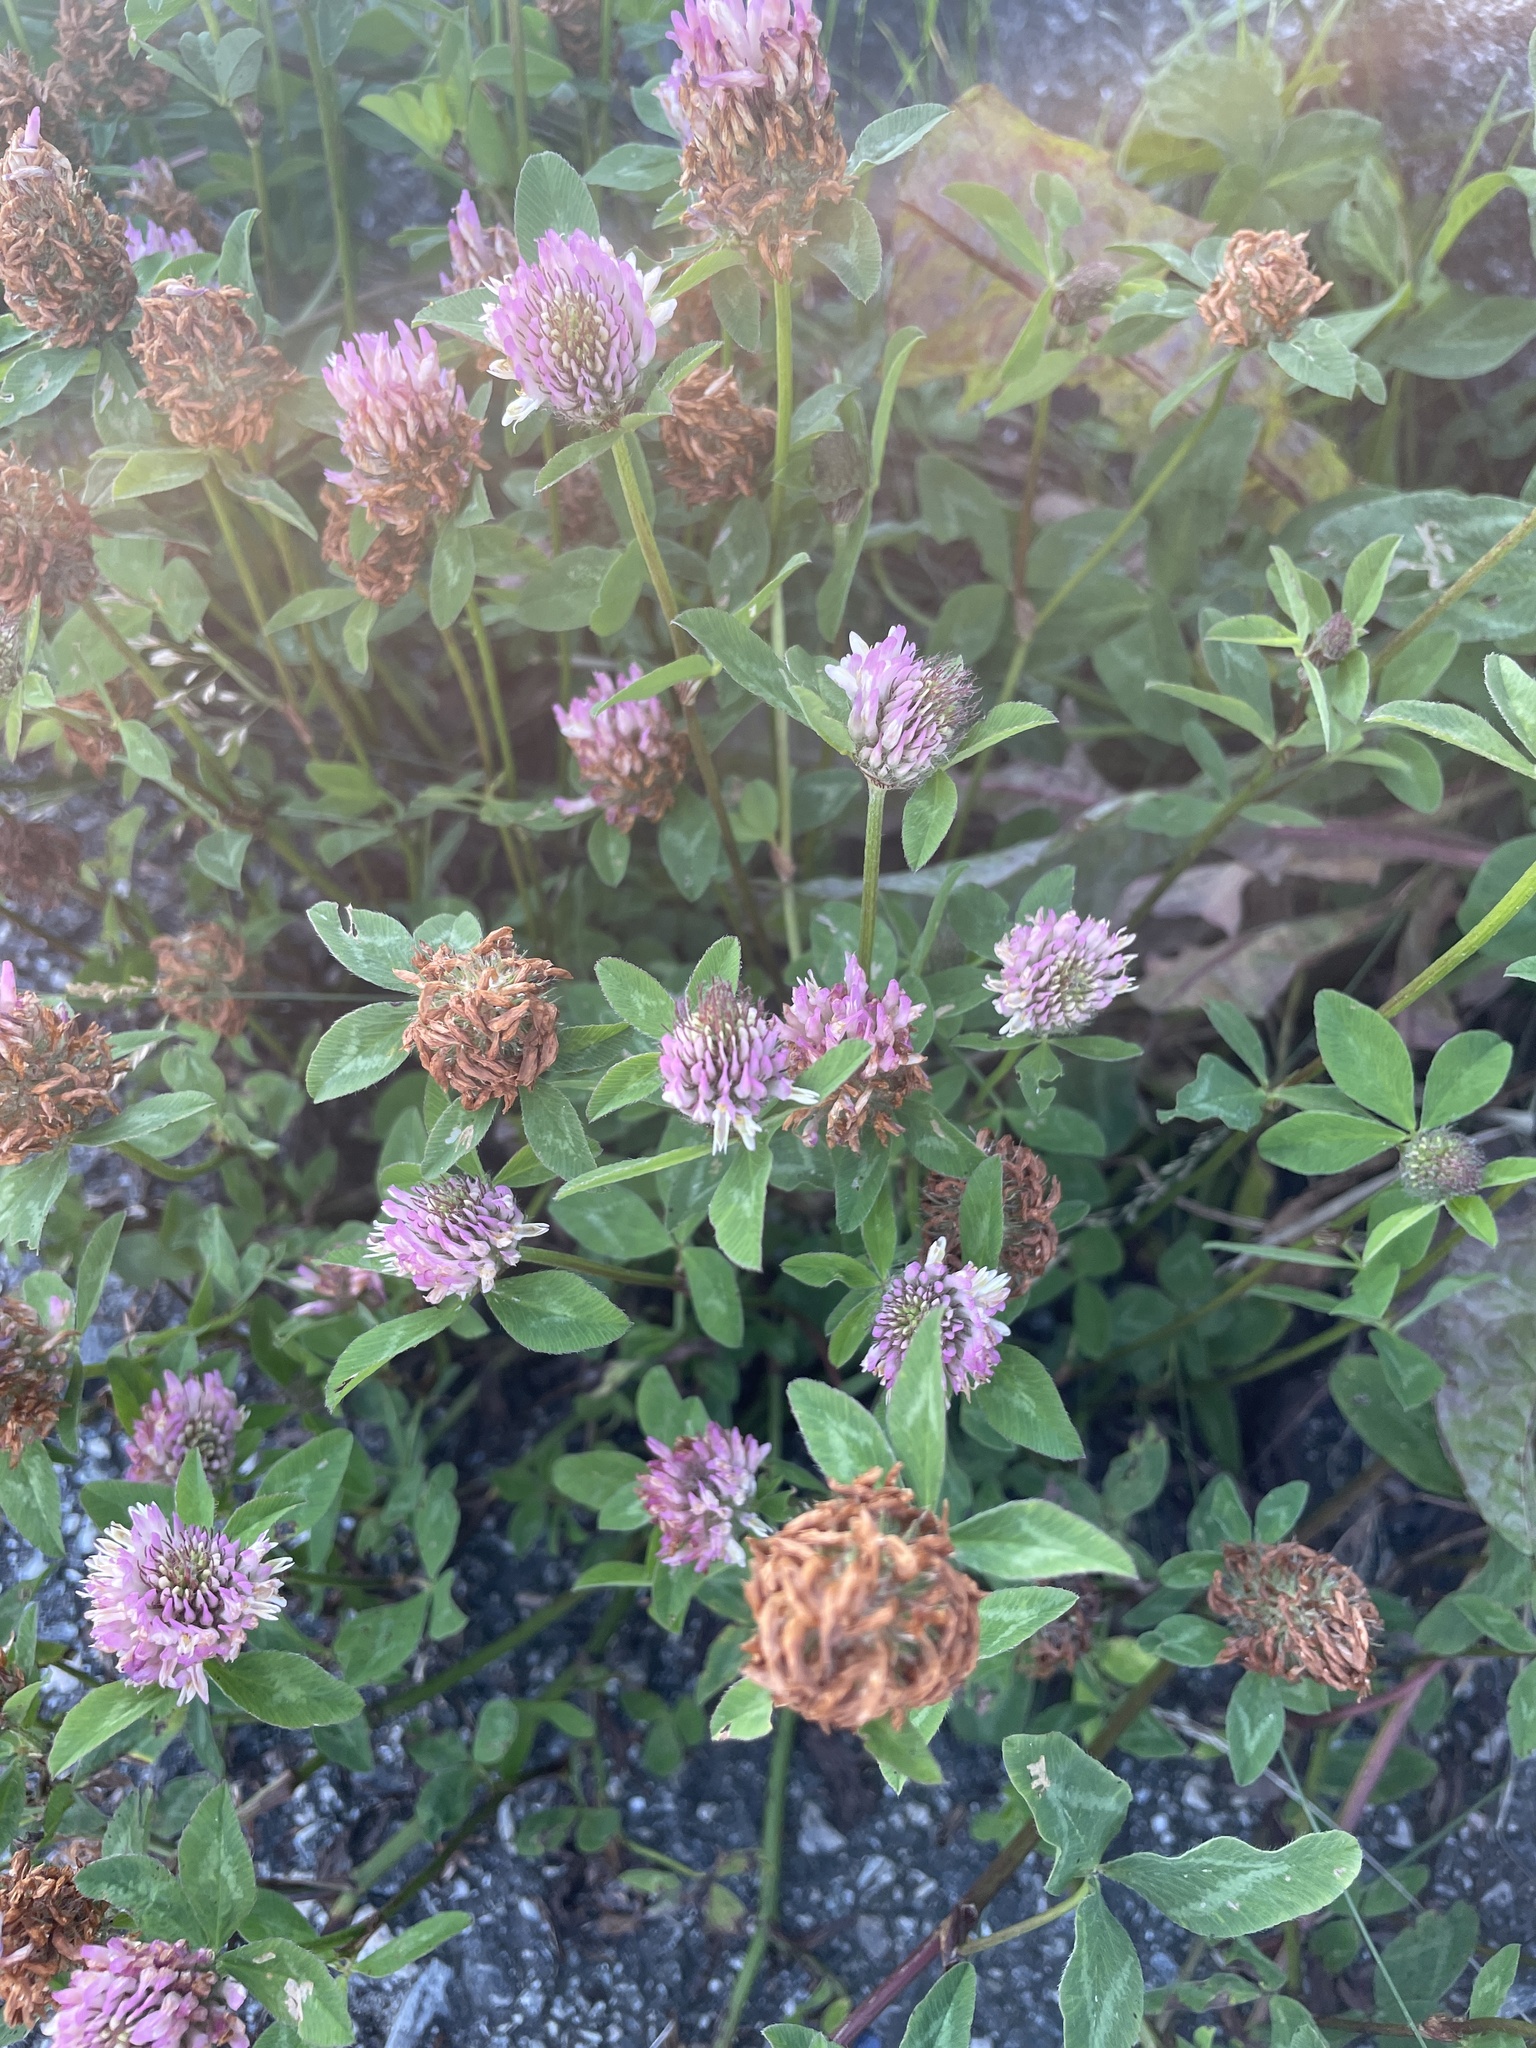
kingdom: Plantae
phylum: Tracheophyta
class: Magnoliopsida
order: Fabales
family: Fabaceae
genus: Trifolium
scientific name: Trifolium pratense
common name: Red clover
